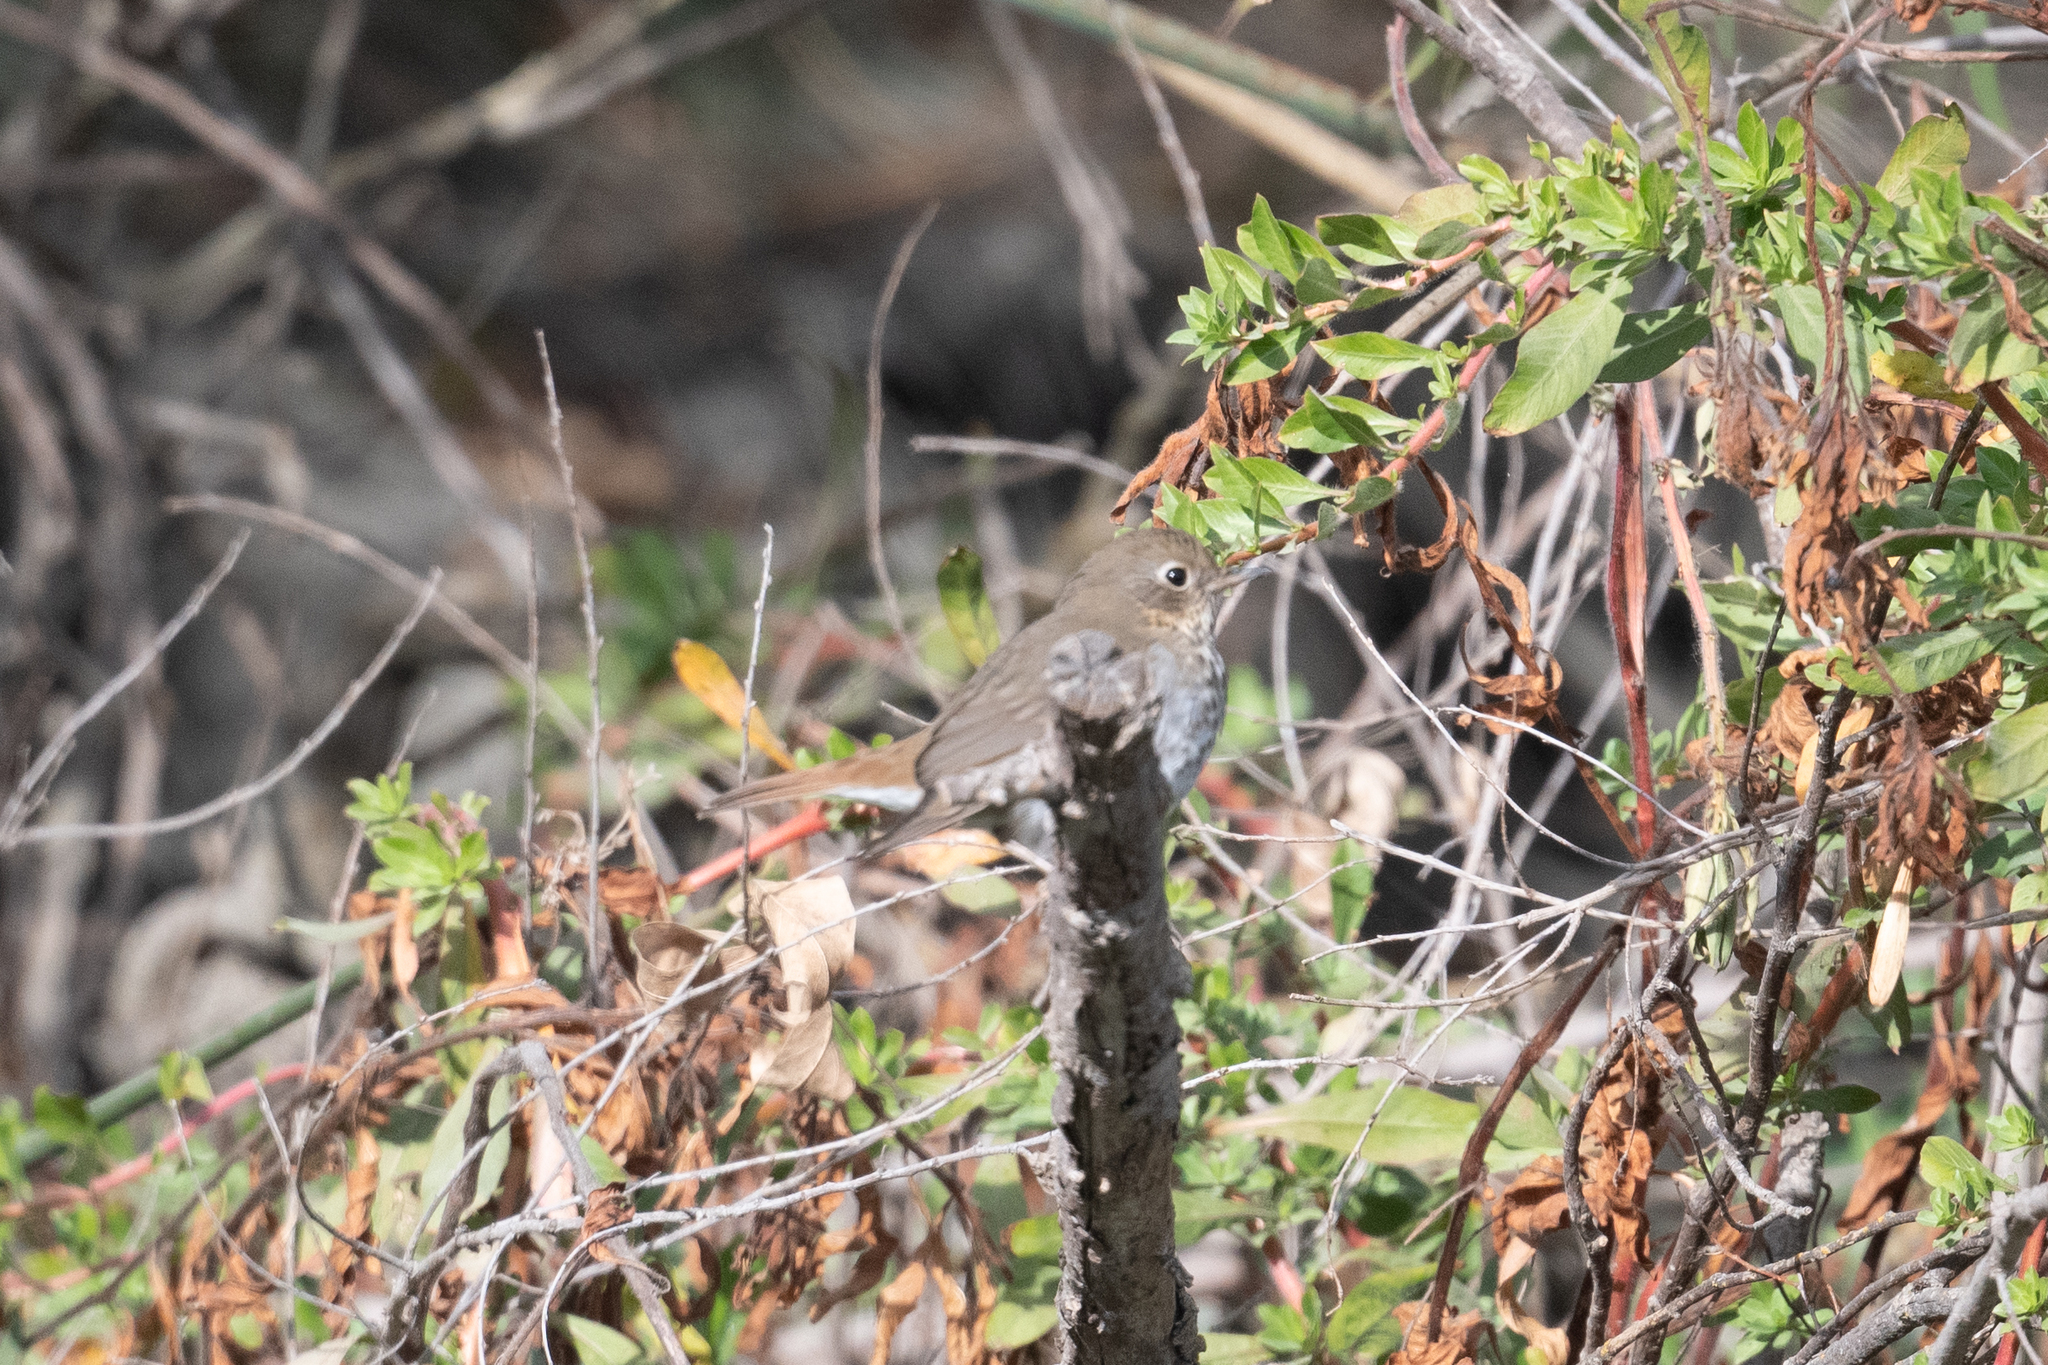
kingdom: Animalia
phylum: Chordata
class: Aves
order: Passeriformes
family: Turdidae
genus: Catharus
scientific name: Catharus guttatus
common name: Hermit thrush
